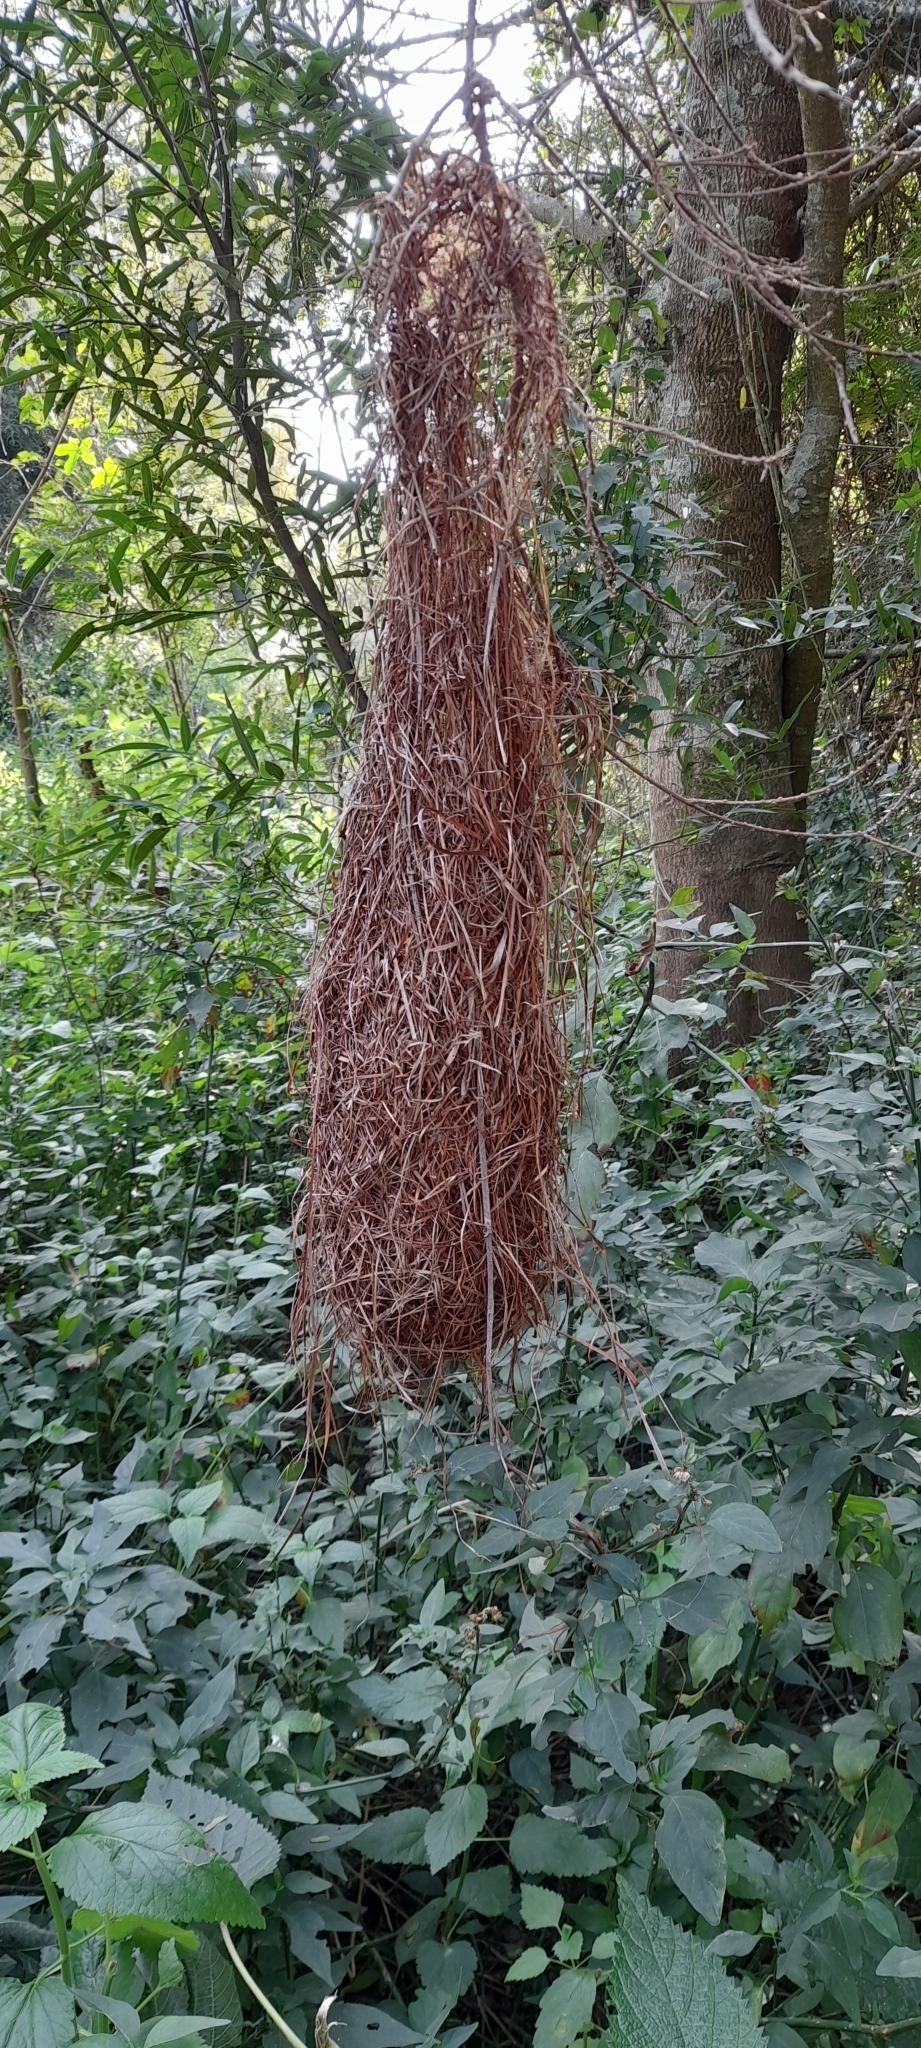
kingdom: Animalia
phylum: Chordata
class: Aves
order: Passeriformes
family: Icteridae
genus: Cacicus
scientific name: Cacicus solitarius
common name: Solitary cacique
